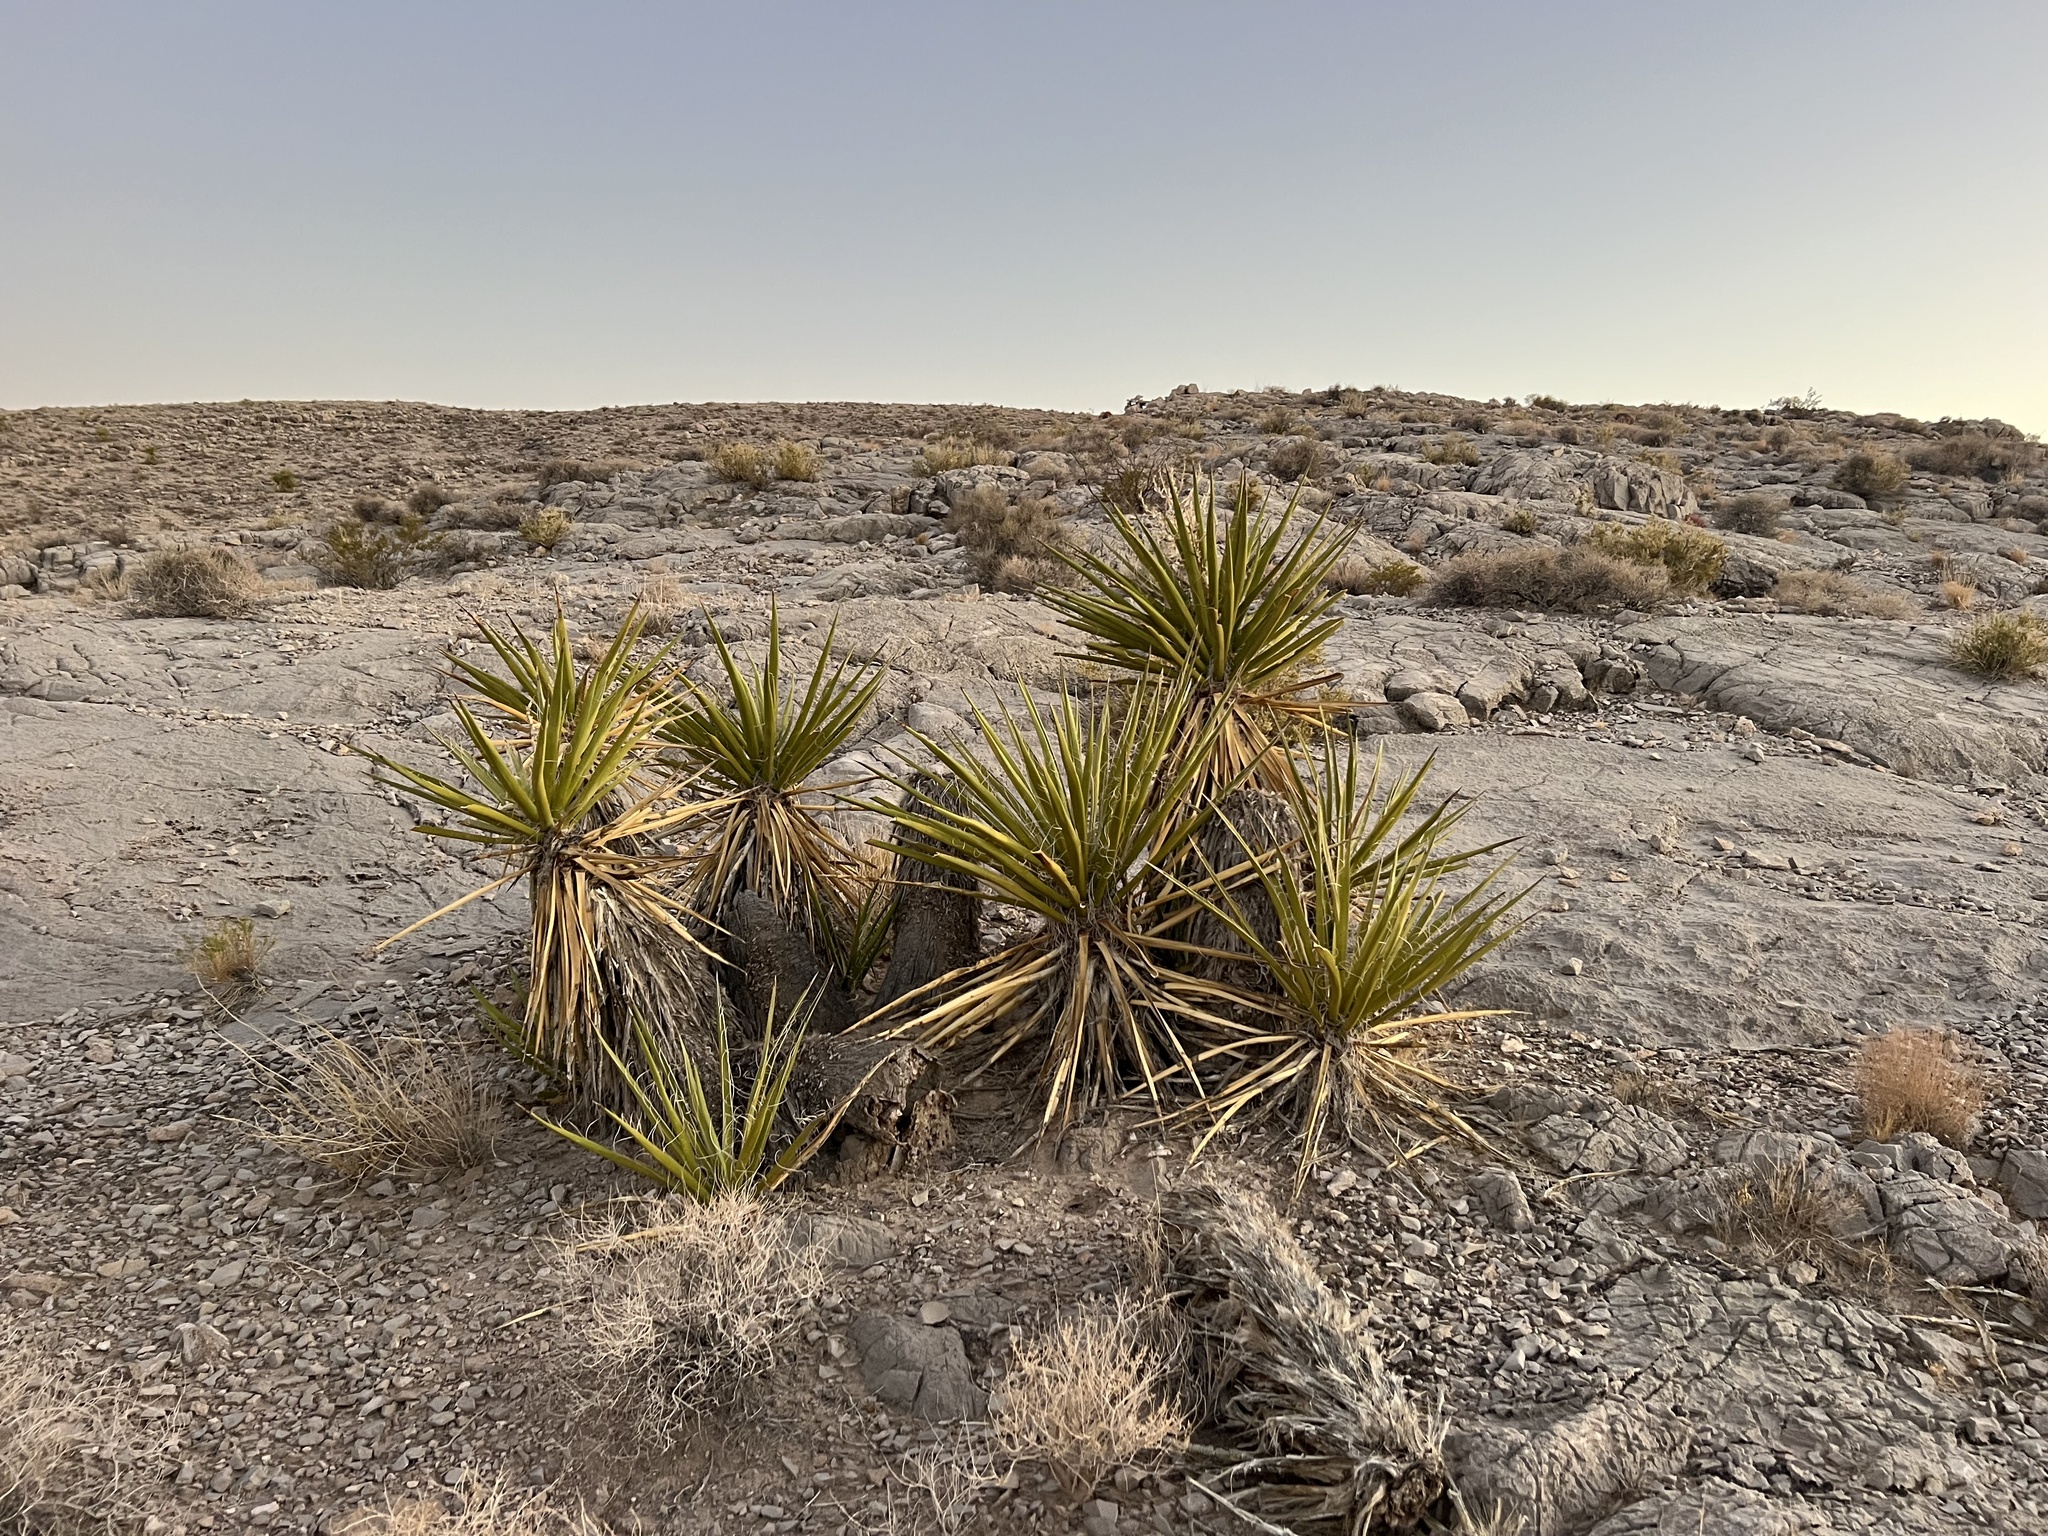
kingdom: Plantae
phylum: Tracheophyta
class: Liliopsida
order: Asparagales
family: Asparagaceae
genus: Yucca
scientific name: Yucca schidigera
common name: Mojave yucca
